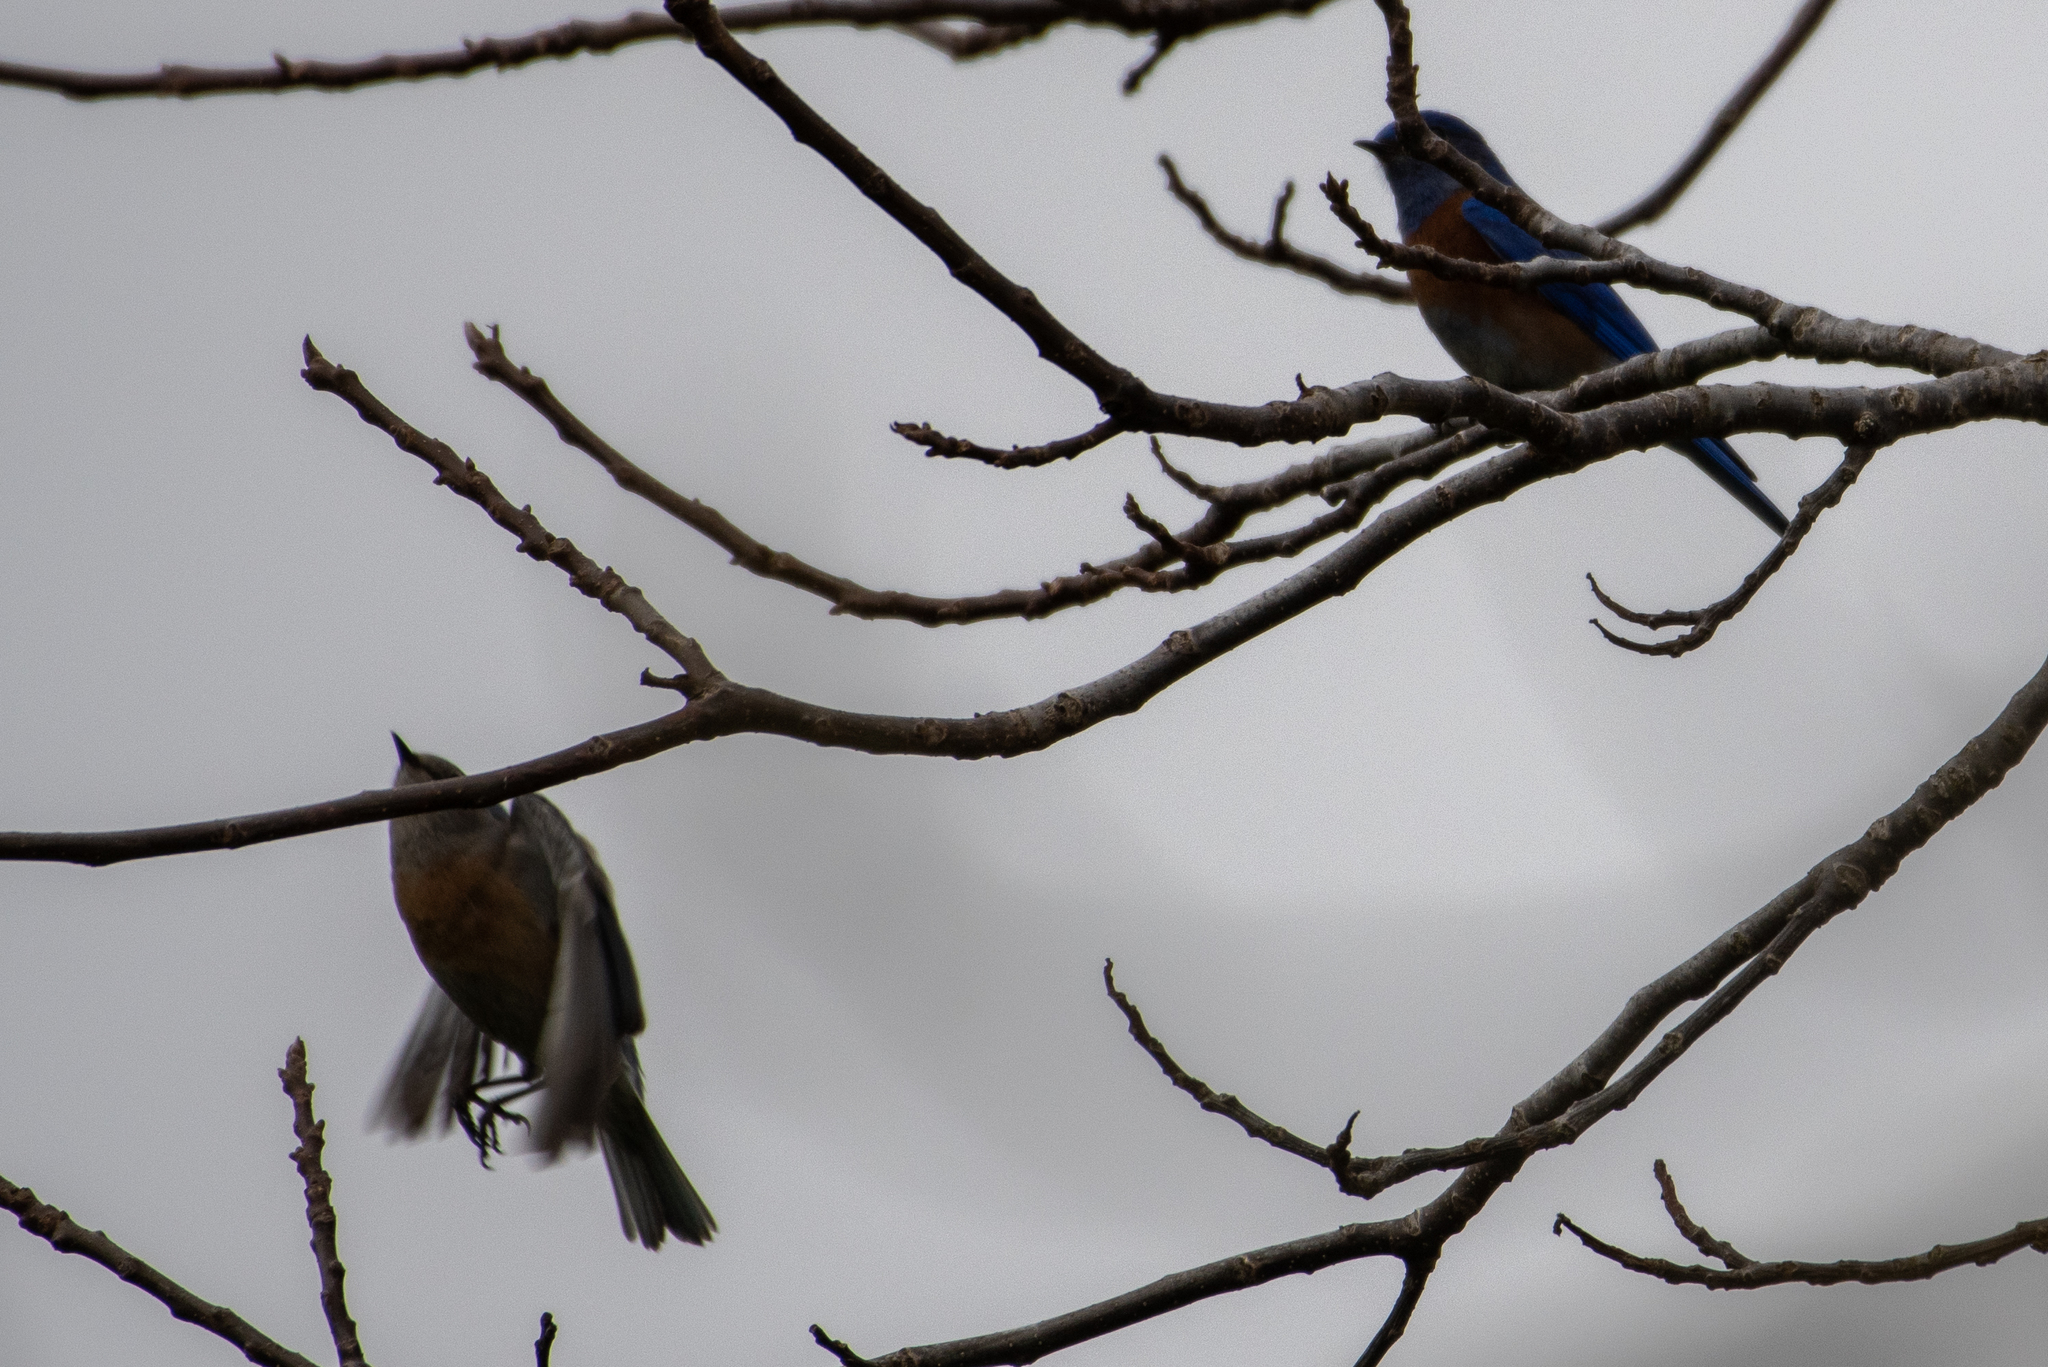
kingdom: Animalia
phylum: Chordata
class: Aves
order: Passeriformes
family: Turdidae
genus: Sialia
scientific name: Sialia mexicana
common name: Western bluebird
